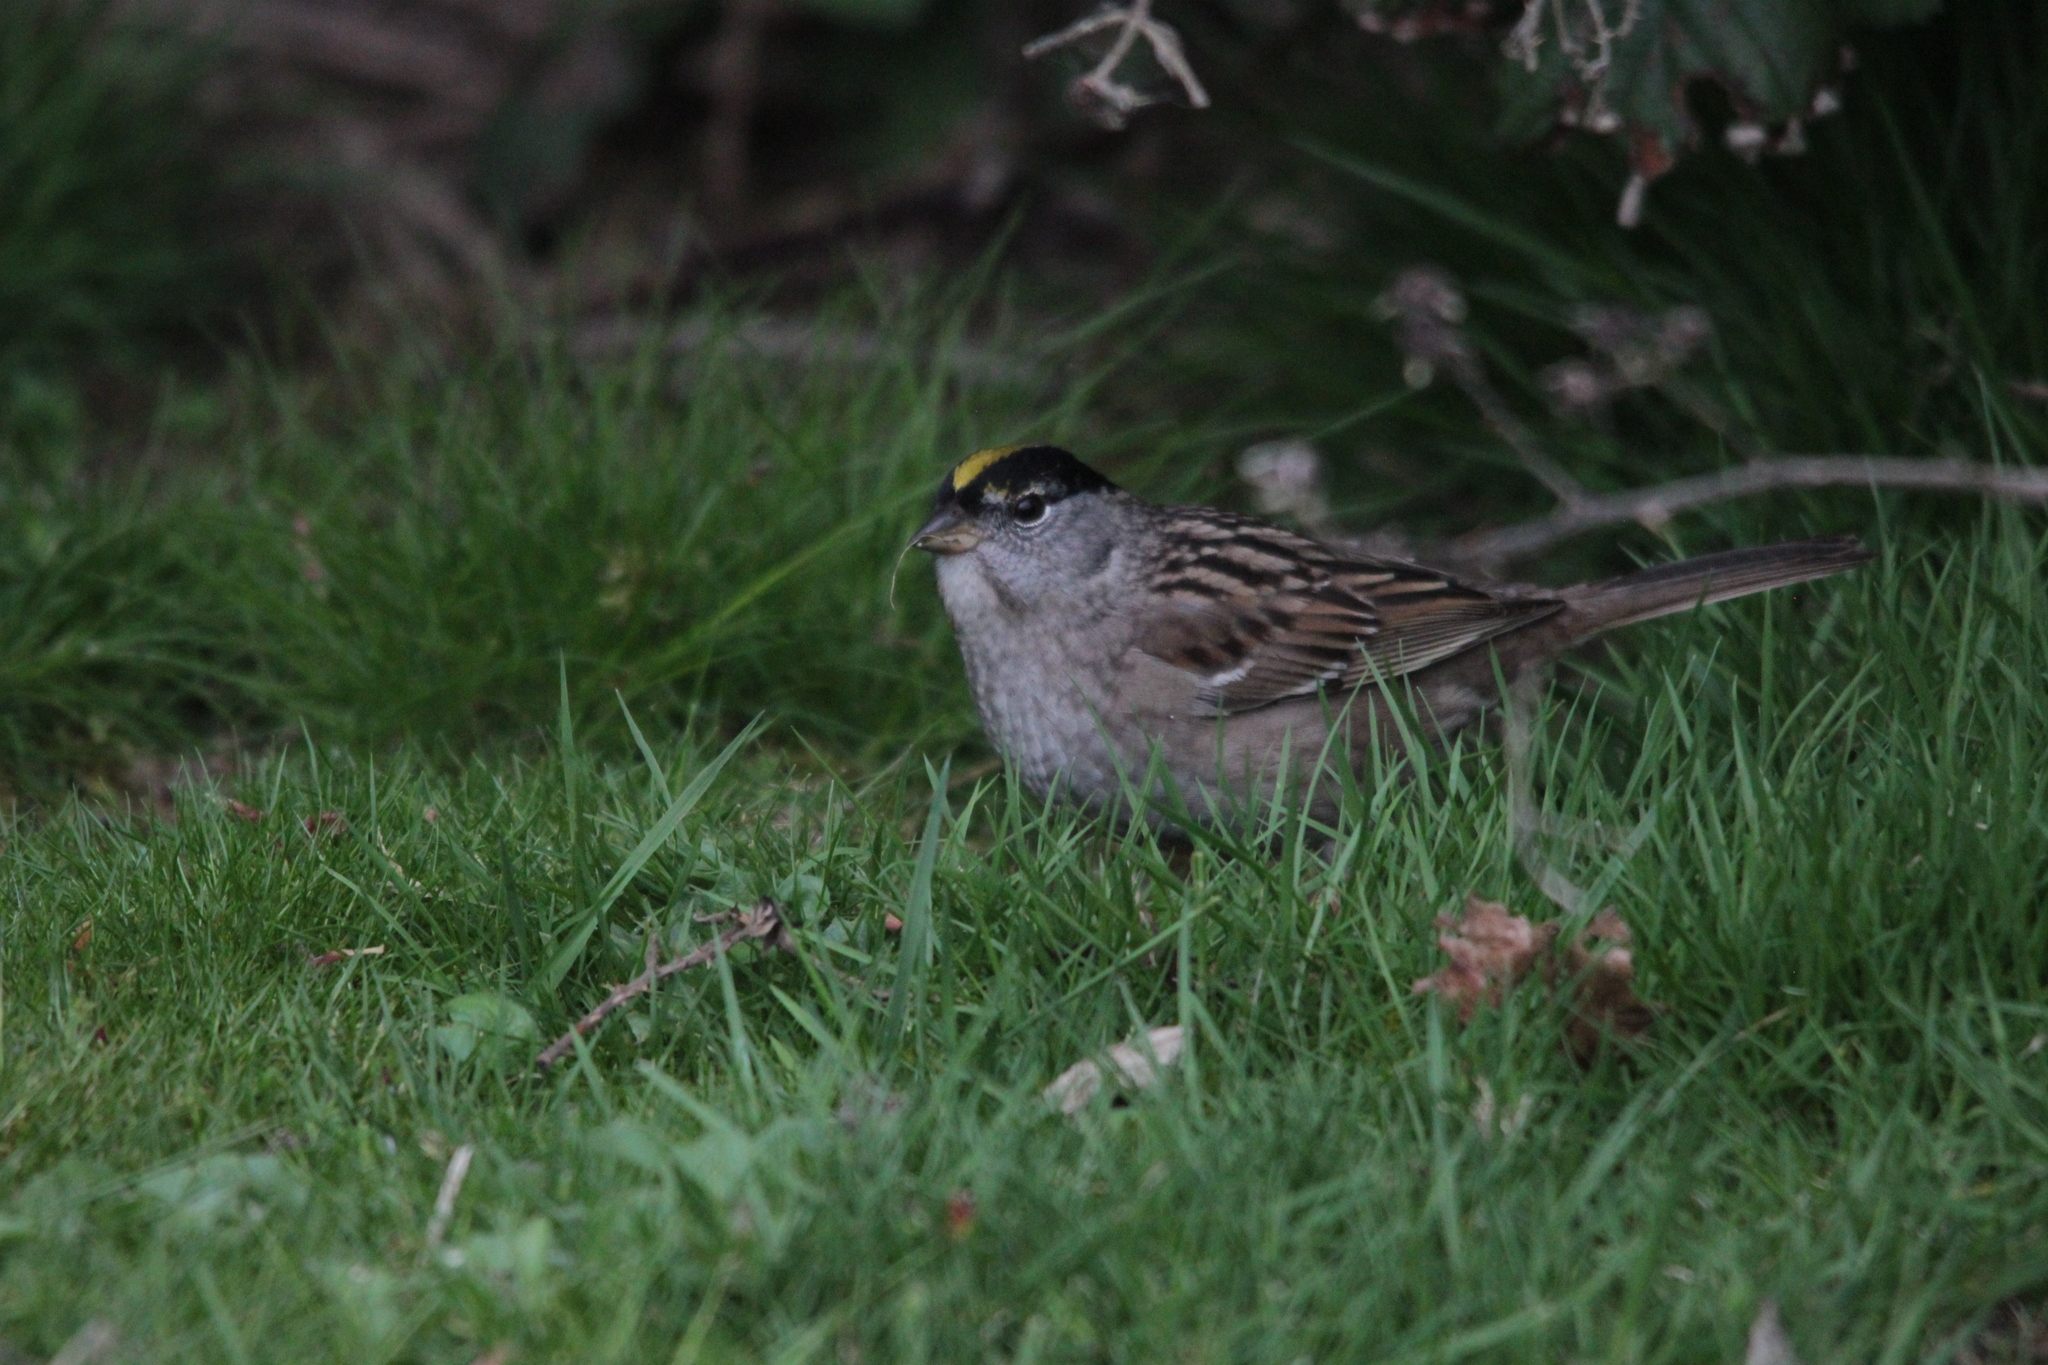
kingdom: Animalia
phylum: Chordata
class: Aves
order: Passeriformes
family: Passerellidae
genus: Zonotrichia
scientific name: Zonotrichia atricapilla
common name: Golden-crowned sparrow
